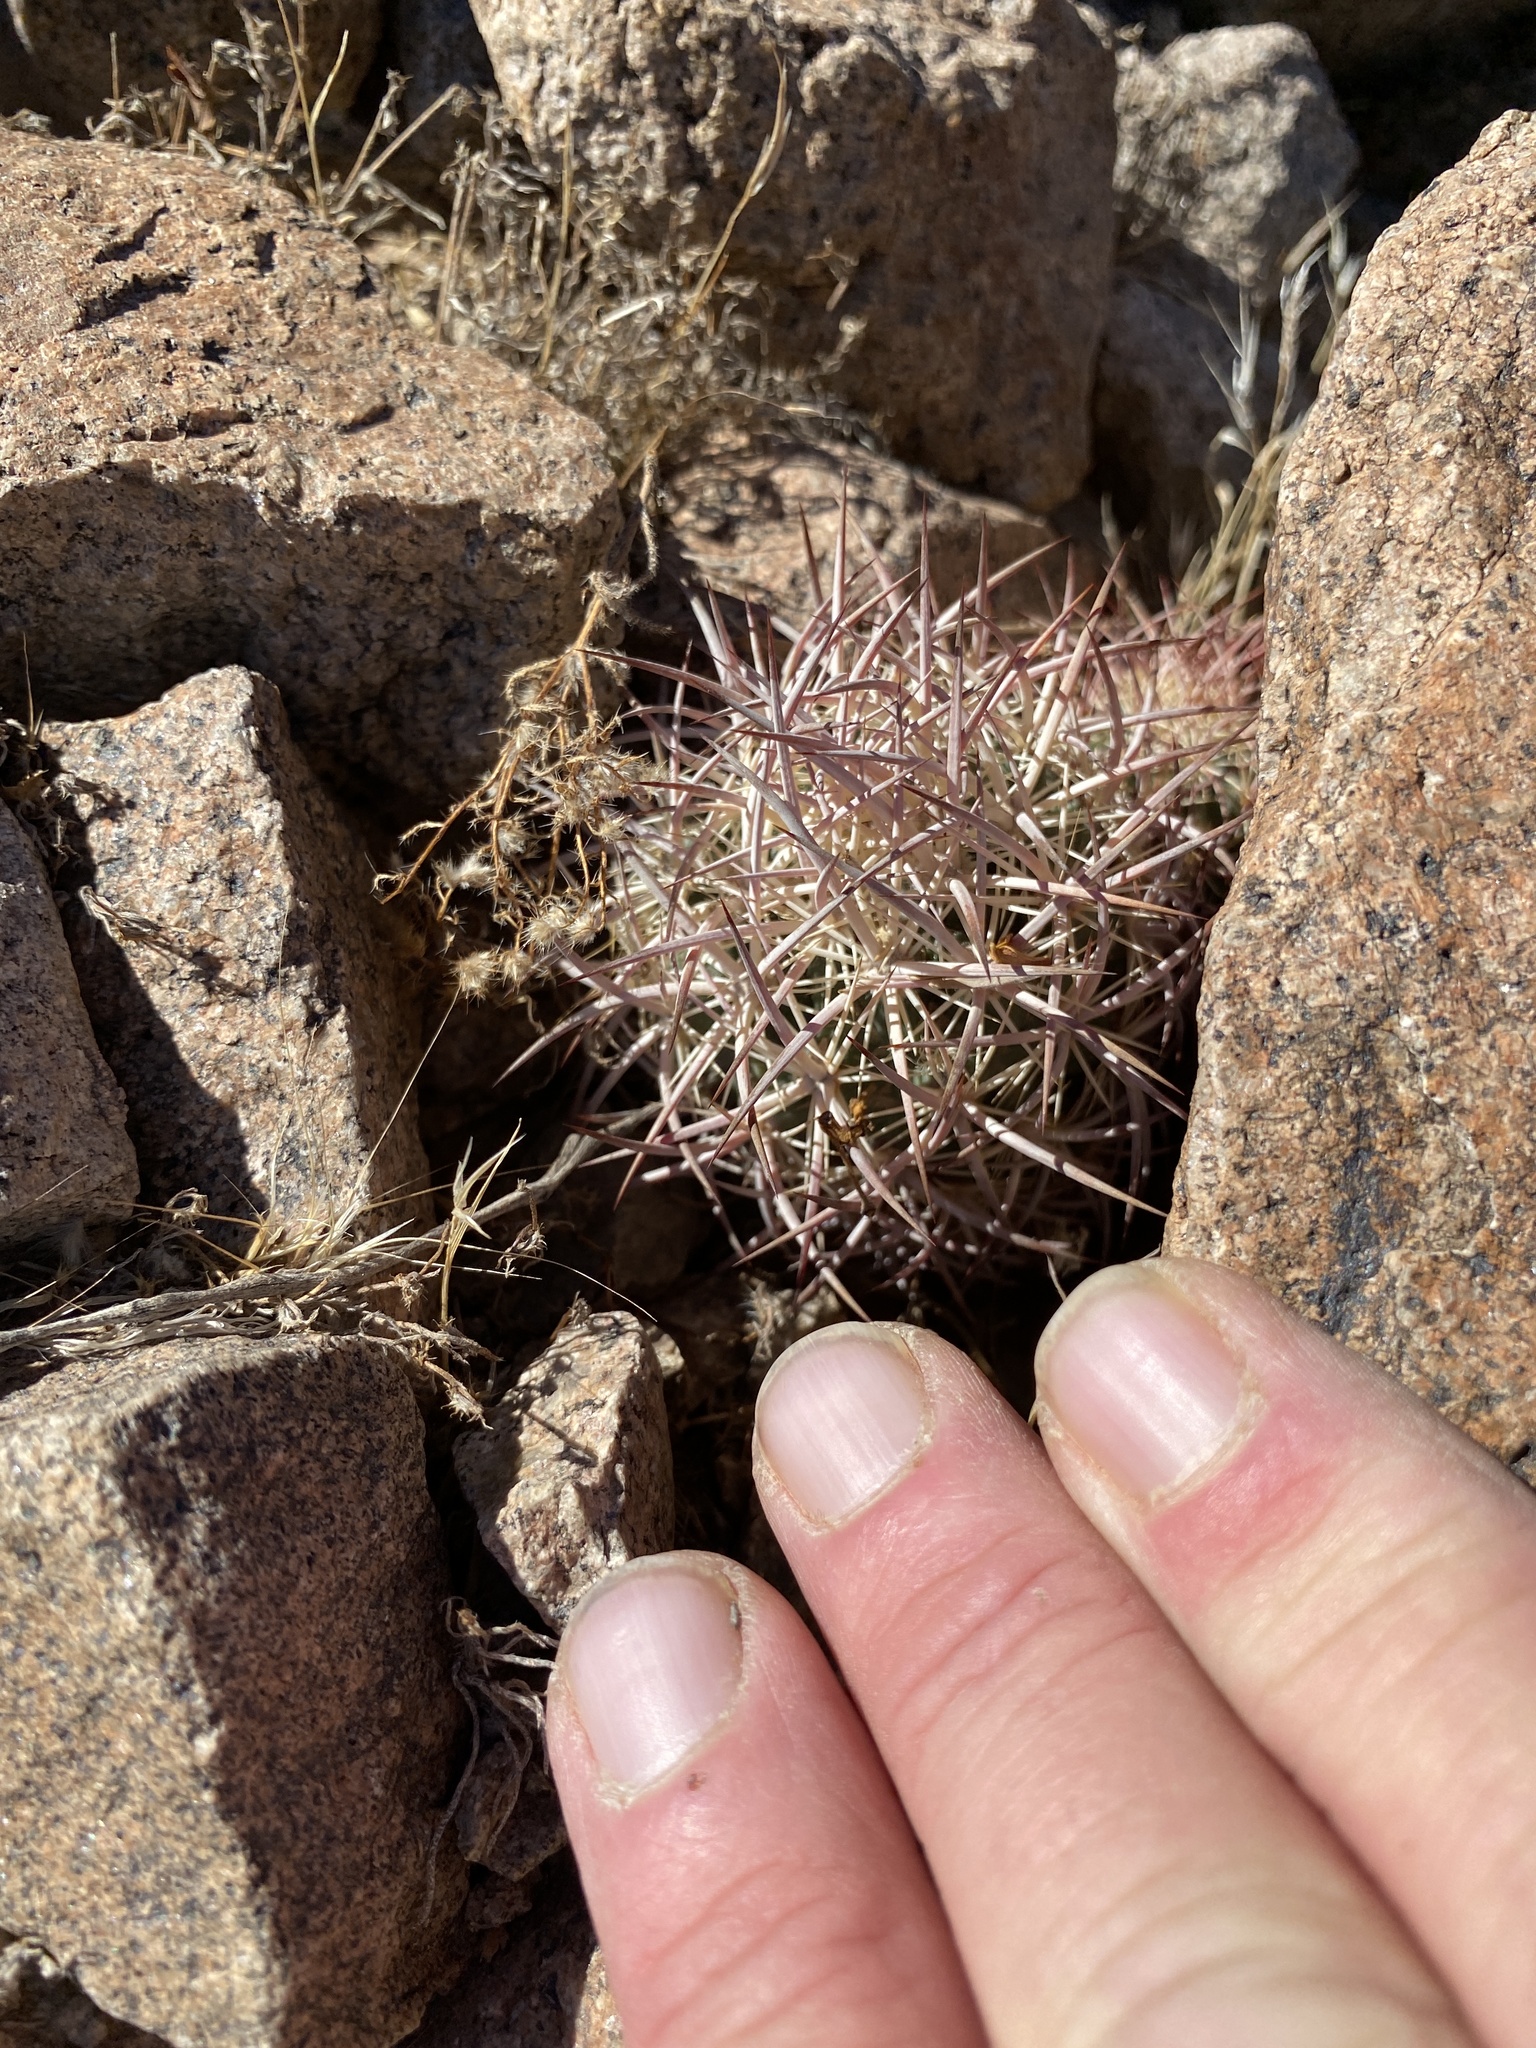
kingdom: Plantae
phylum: Tracheophyta
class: Magnoliopsida
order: Caryophyllales
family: Cactaceae
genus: Sclerocactus
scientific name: Sclerocactus johnsonii
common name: Eight-spine fishhook cactus
